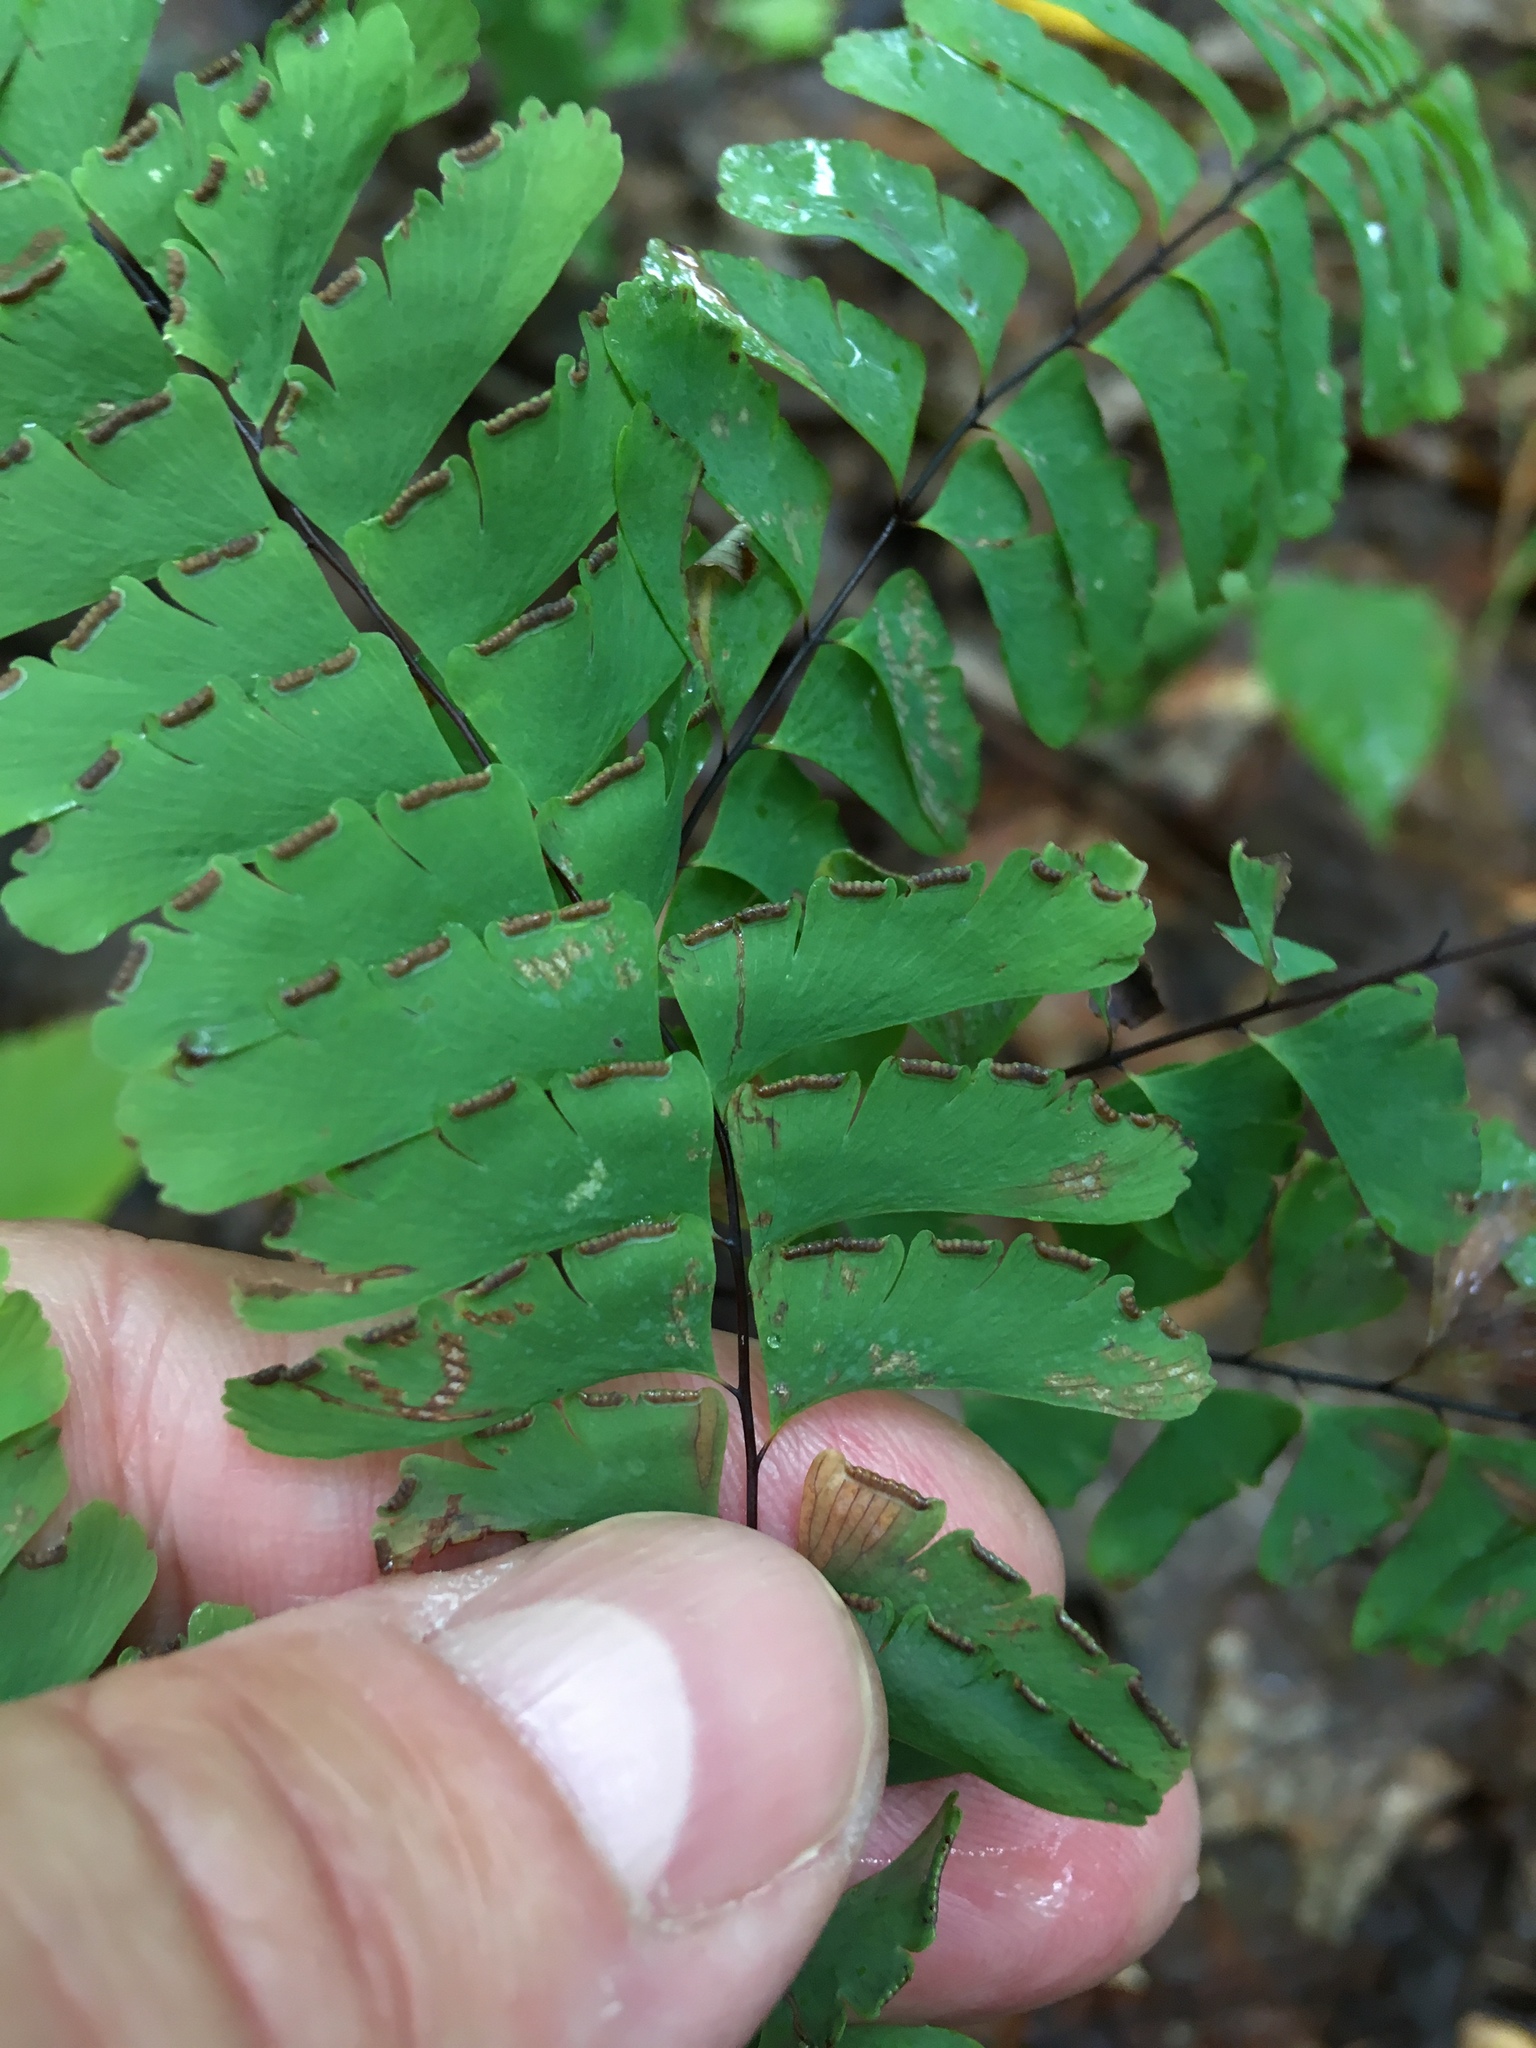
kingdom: Plantae
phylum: Tracheophyta
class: Polypodiopsida
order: Polypodiales
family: Pteridaceae
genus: Adiantum
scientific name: Adiantum pedatum
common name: Five-finger fern
